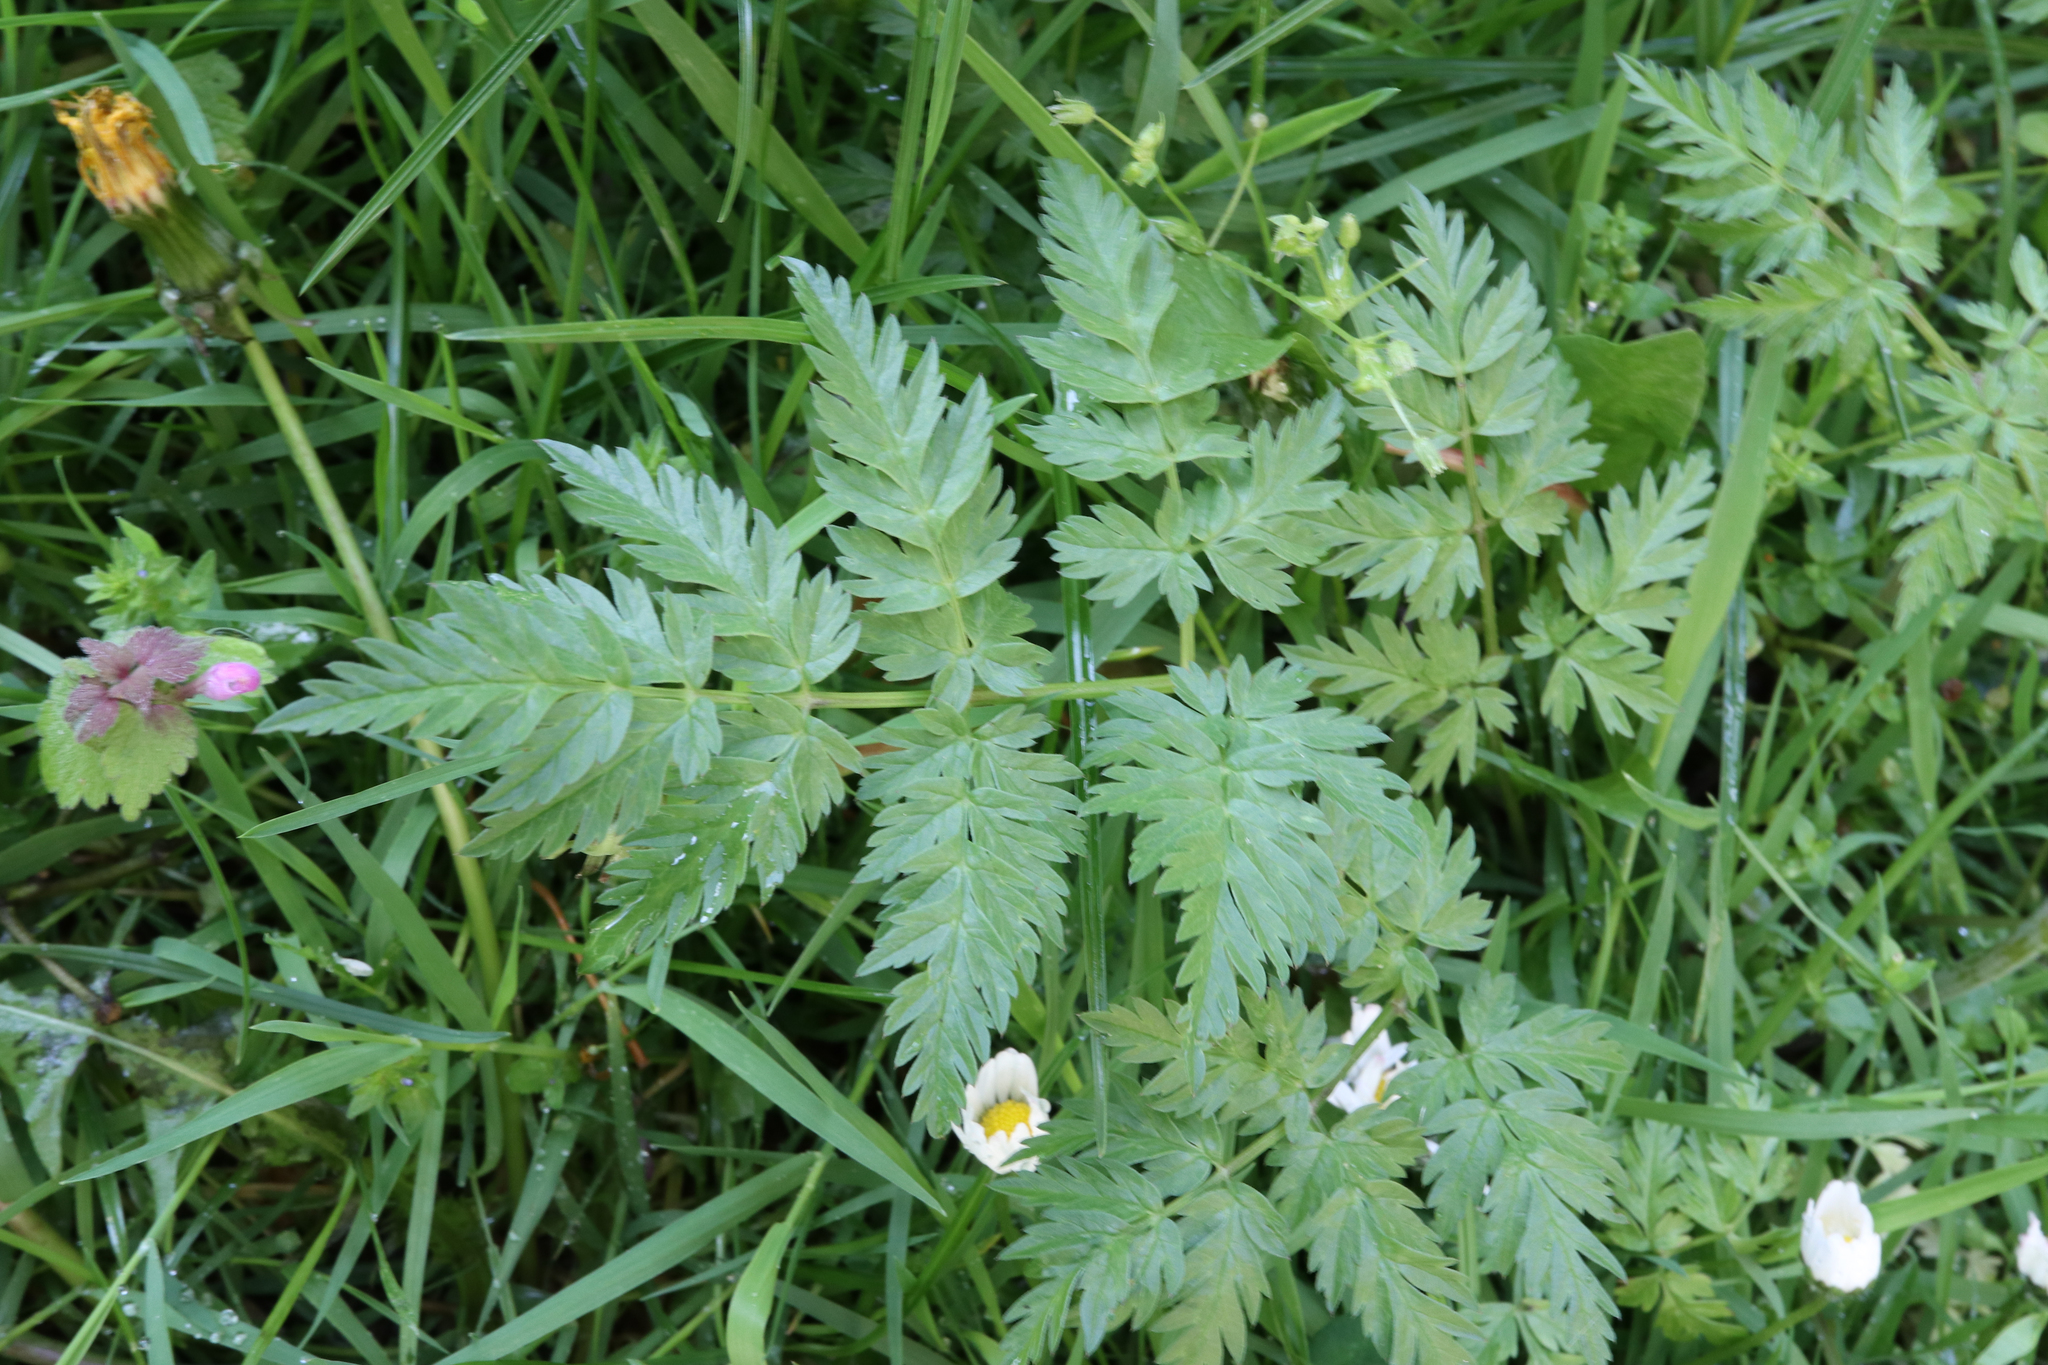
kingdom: Plantae
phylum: Tracheophyta
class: Magnoliopsida
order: Apiales
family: Apiaceae
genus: Anthriscus
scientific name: Anthriscus sylvestris
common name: Cow parsley
